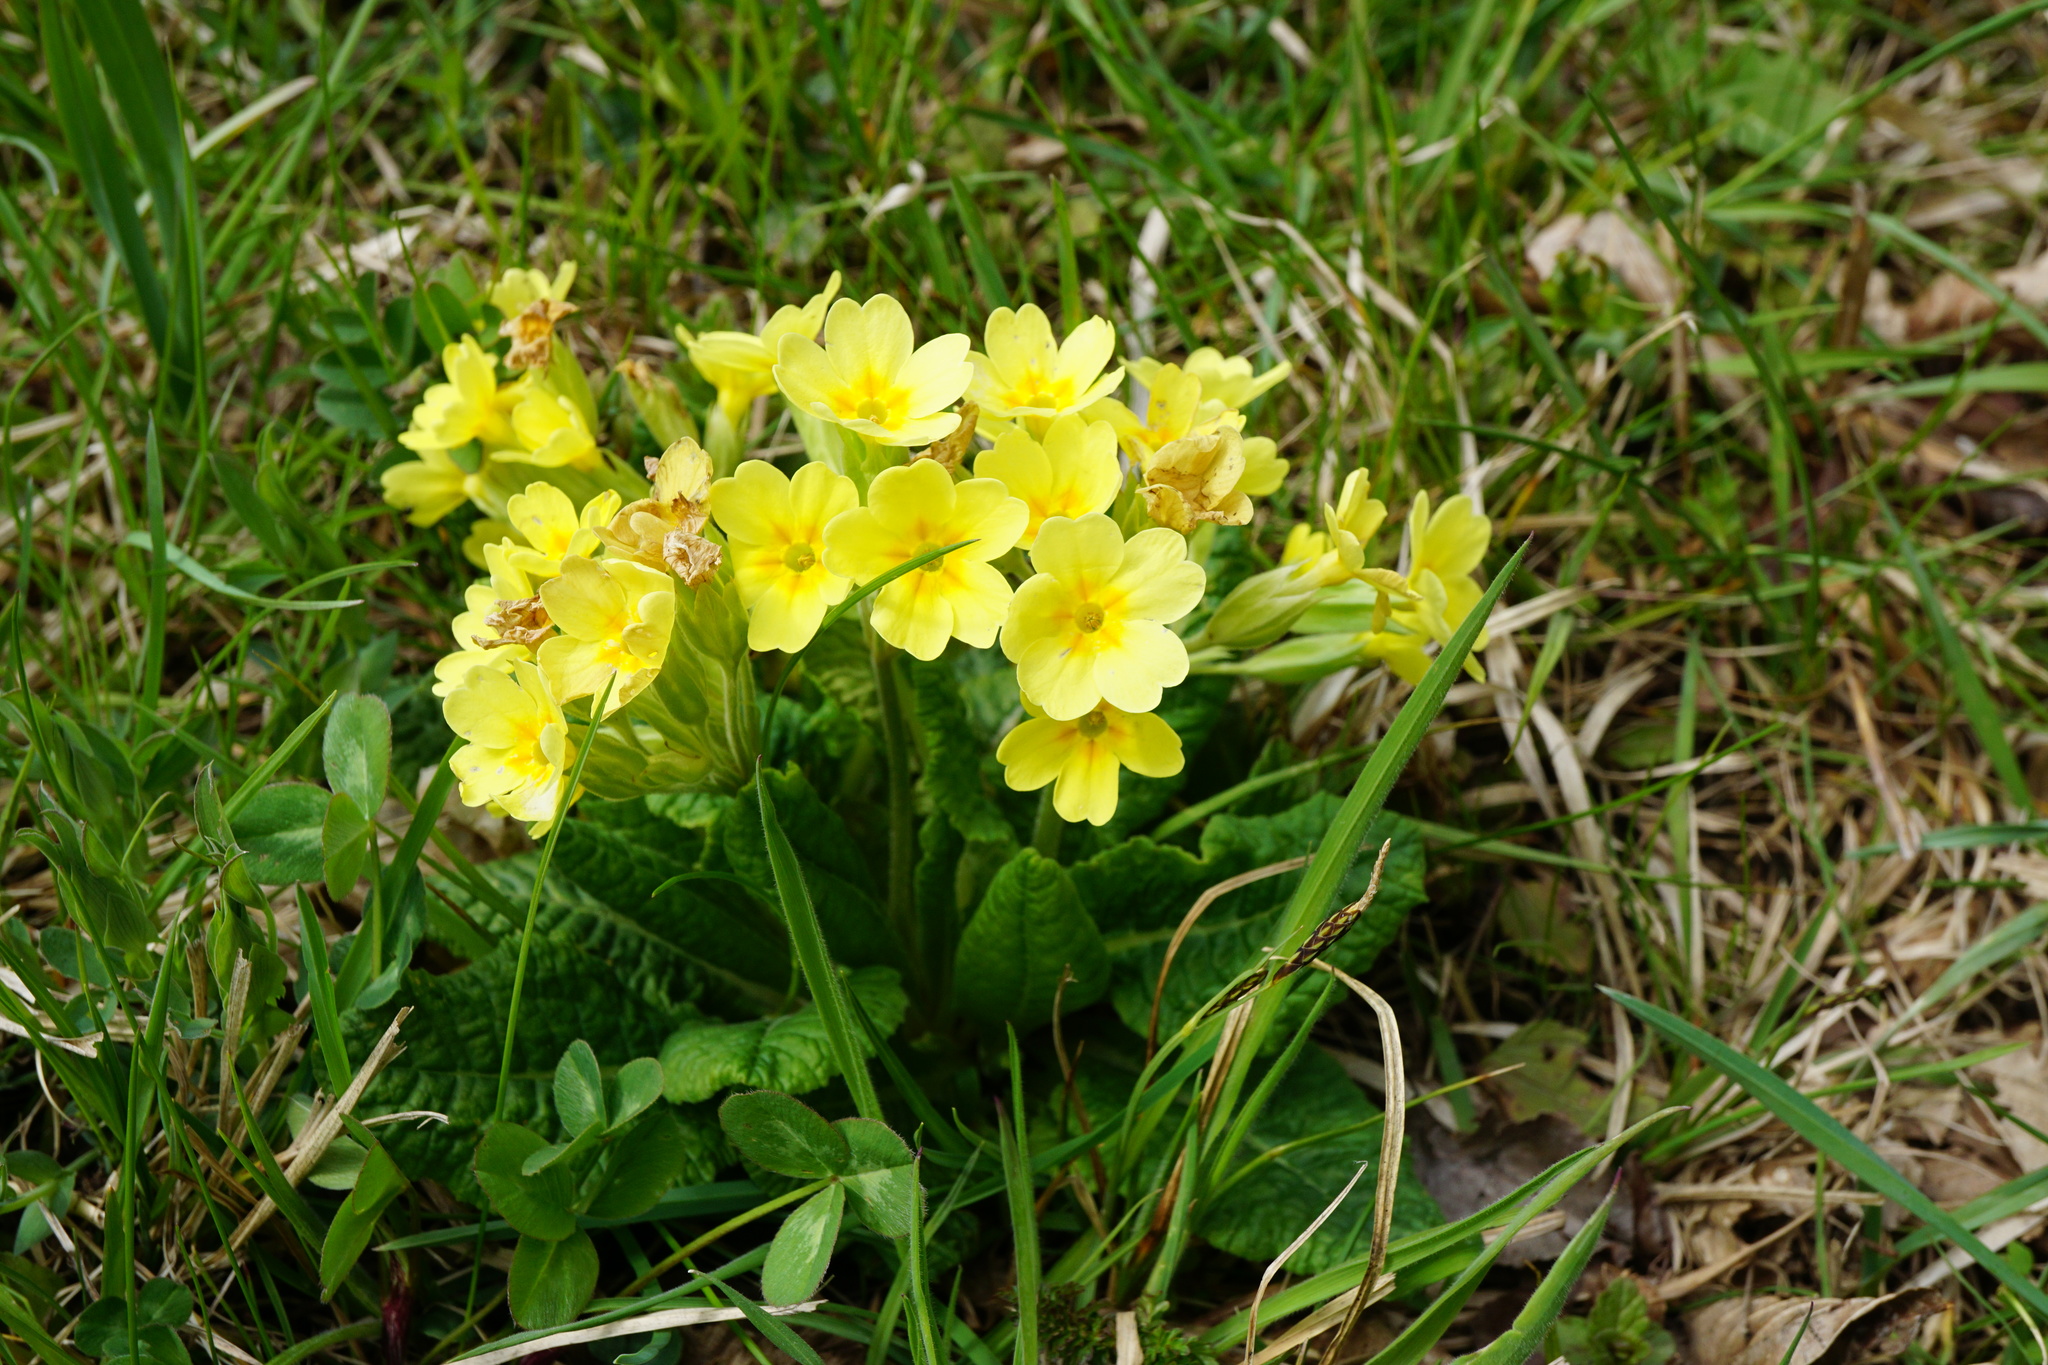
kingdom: Plantae
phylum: Tracheophyta
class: Magnoliopsida
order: Ericales
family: Primulaceae
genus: Primula
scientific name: Primula polyantha
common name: False oxlip
